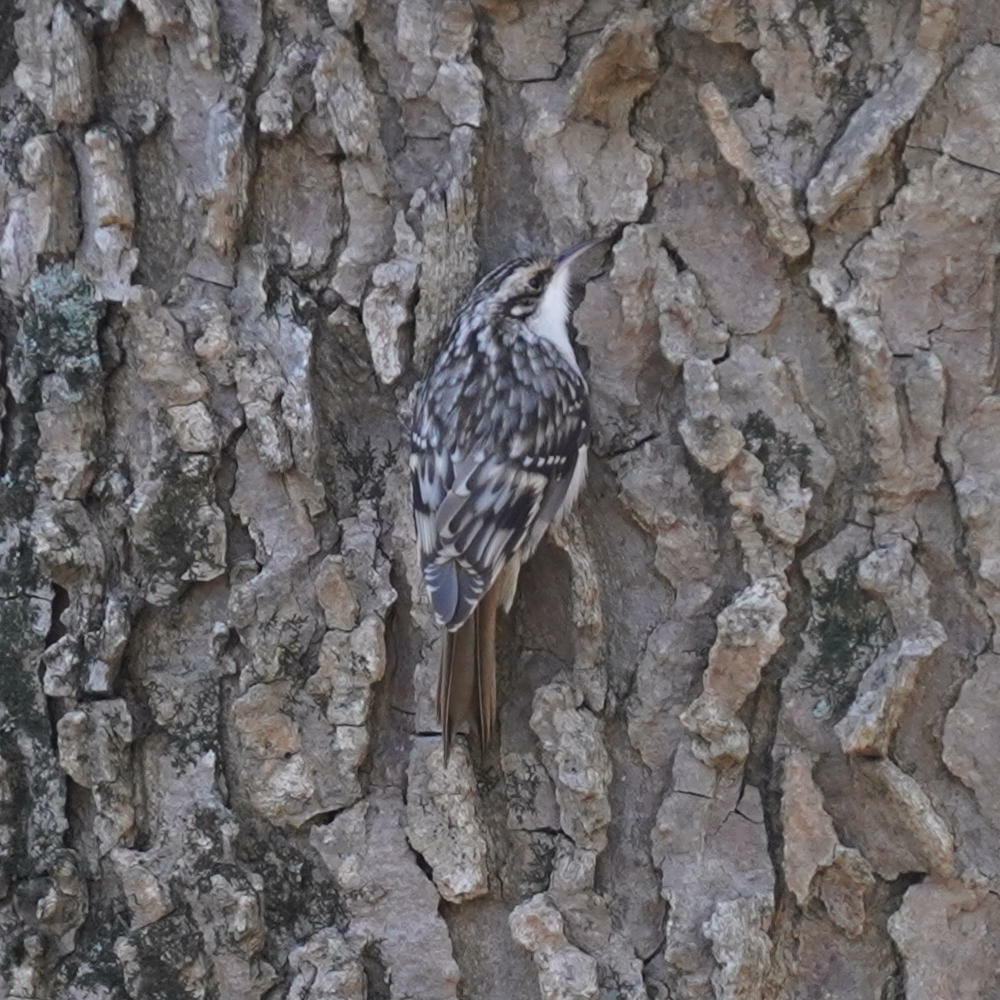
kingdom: Animalia
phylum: Chordata
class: Aves
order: Passeriformes
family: Certhiidae
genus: Certhia
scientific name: Certhia americana
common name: Brown creeper
